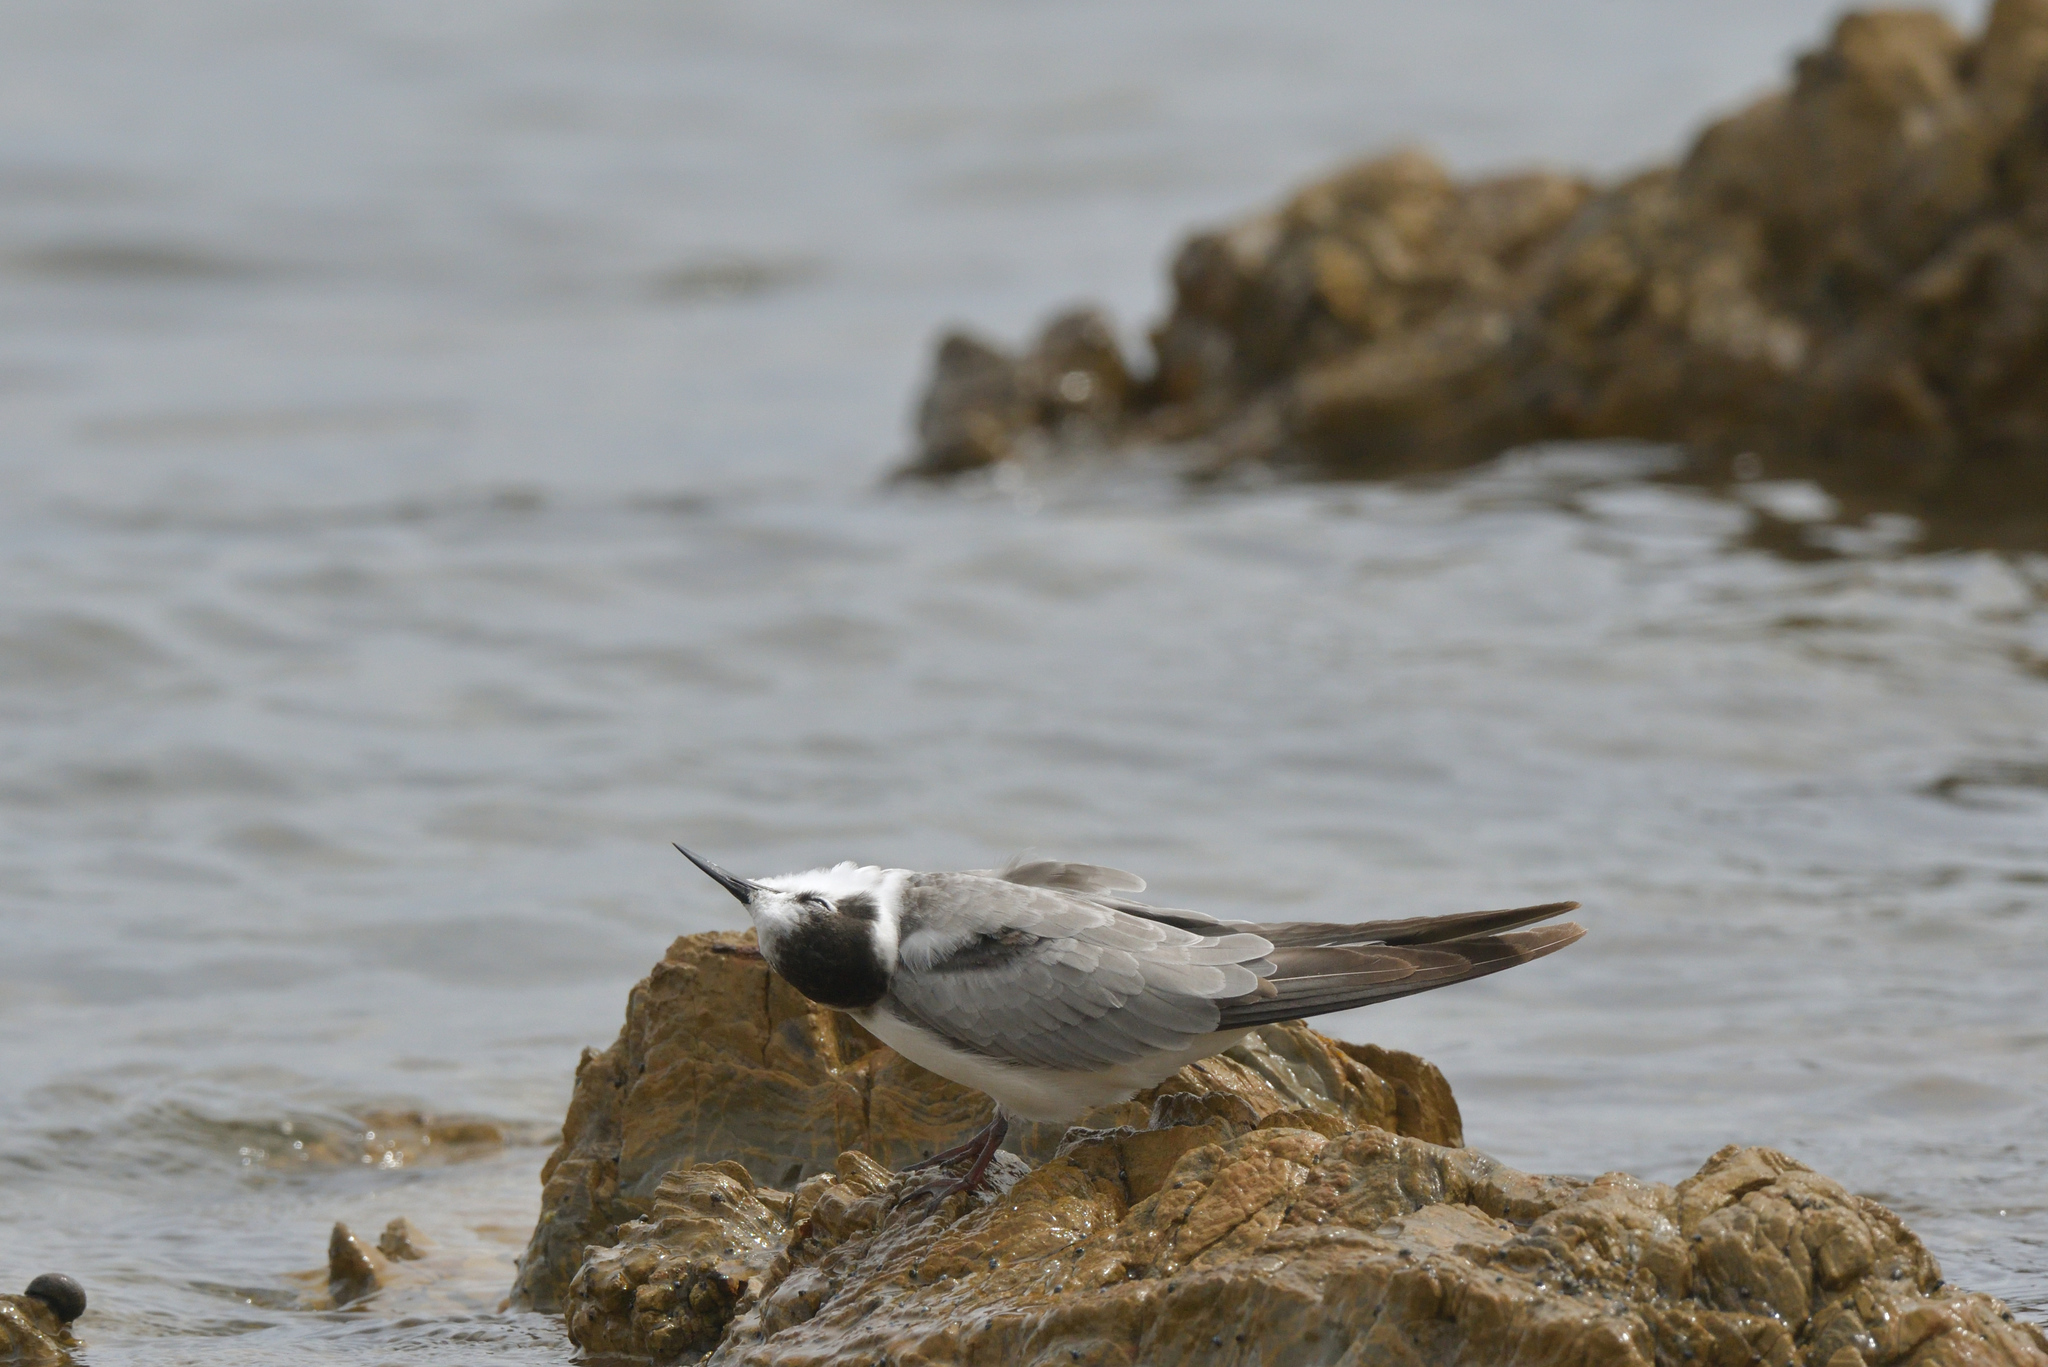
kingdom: Animalia
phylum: Chordata
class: Aves
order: Charadriiformes
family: Laridae
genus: Chlidonias
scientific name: Chlidonias niger
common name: Black tern
